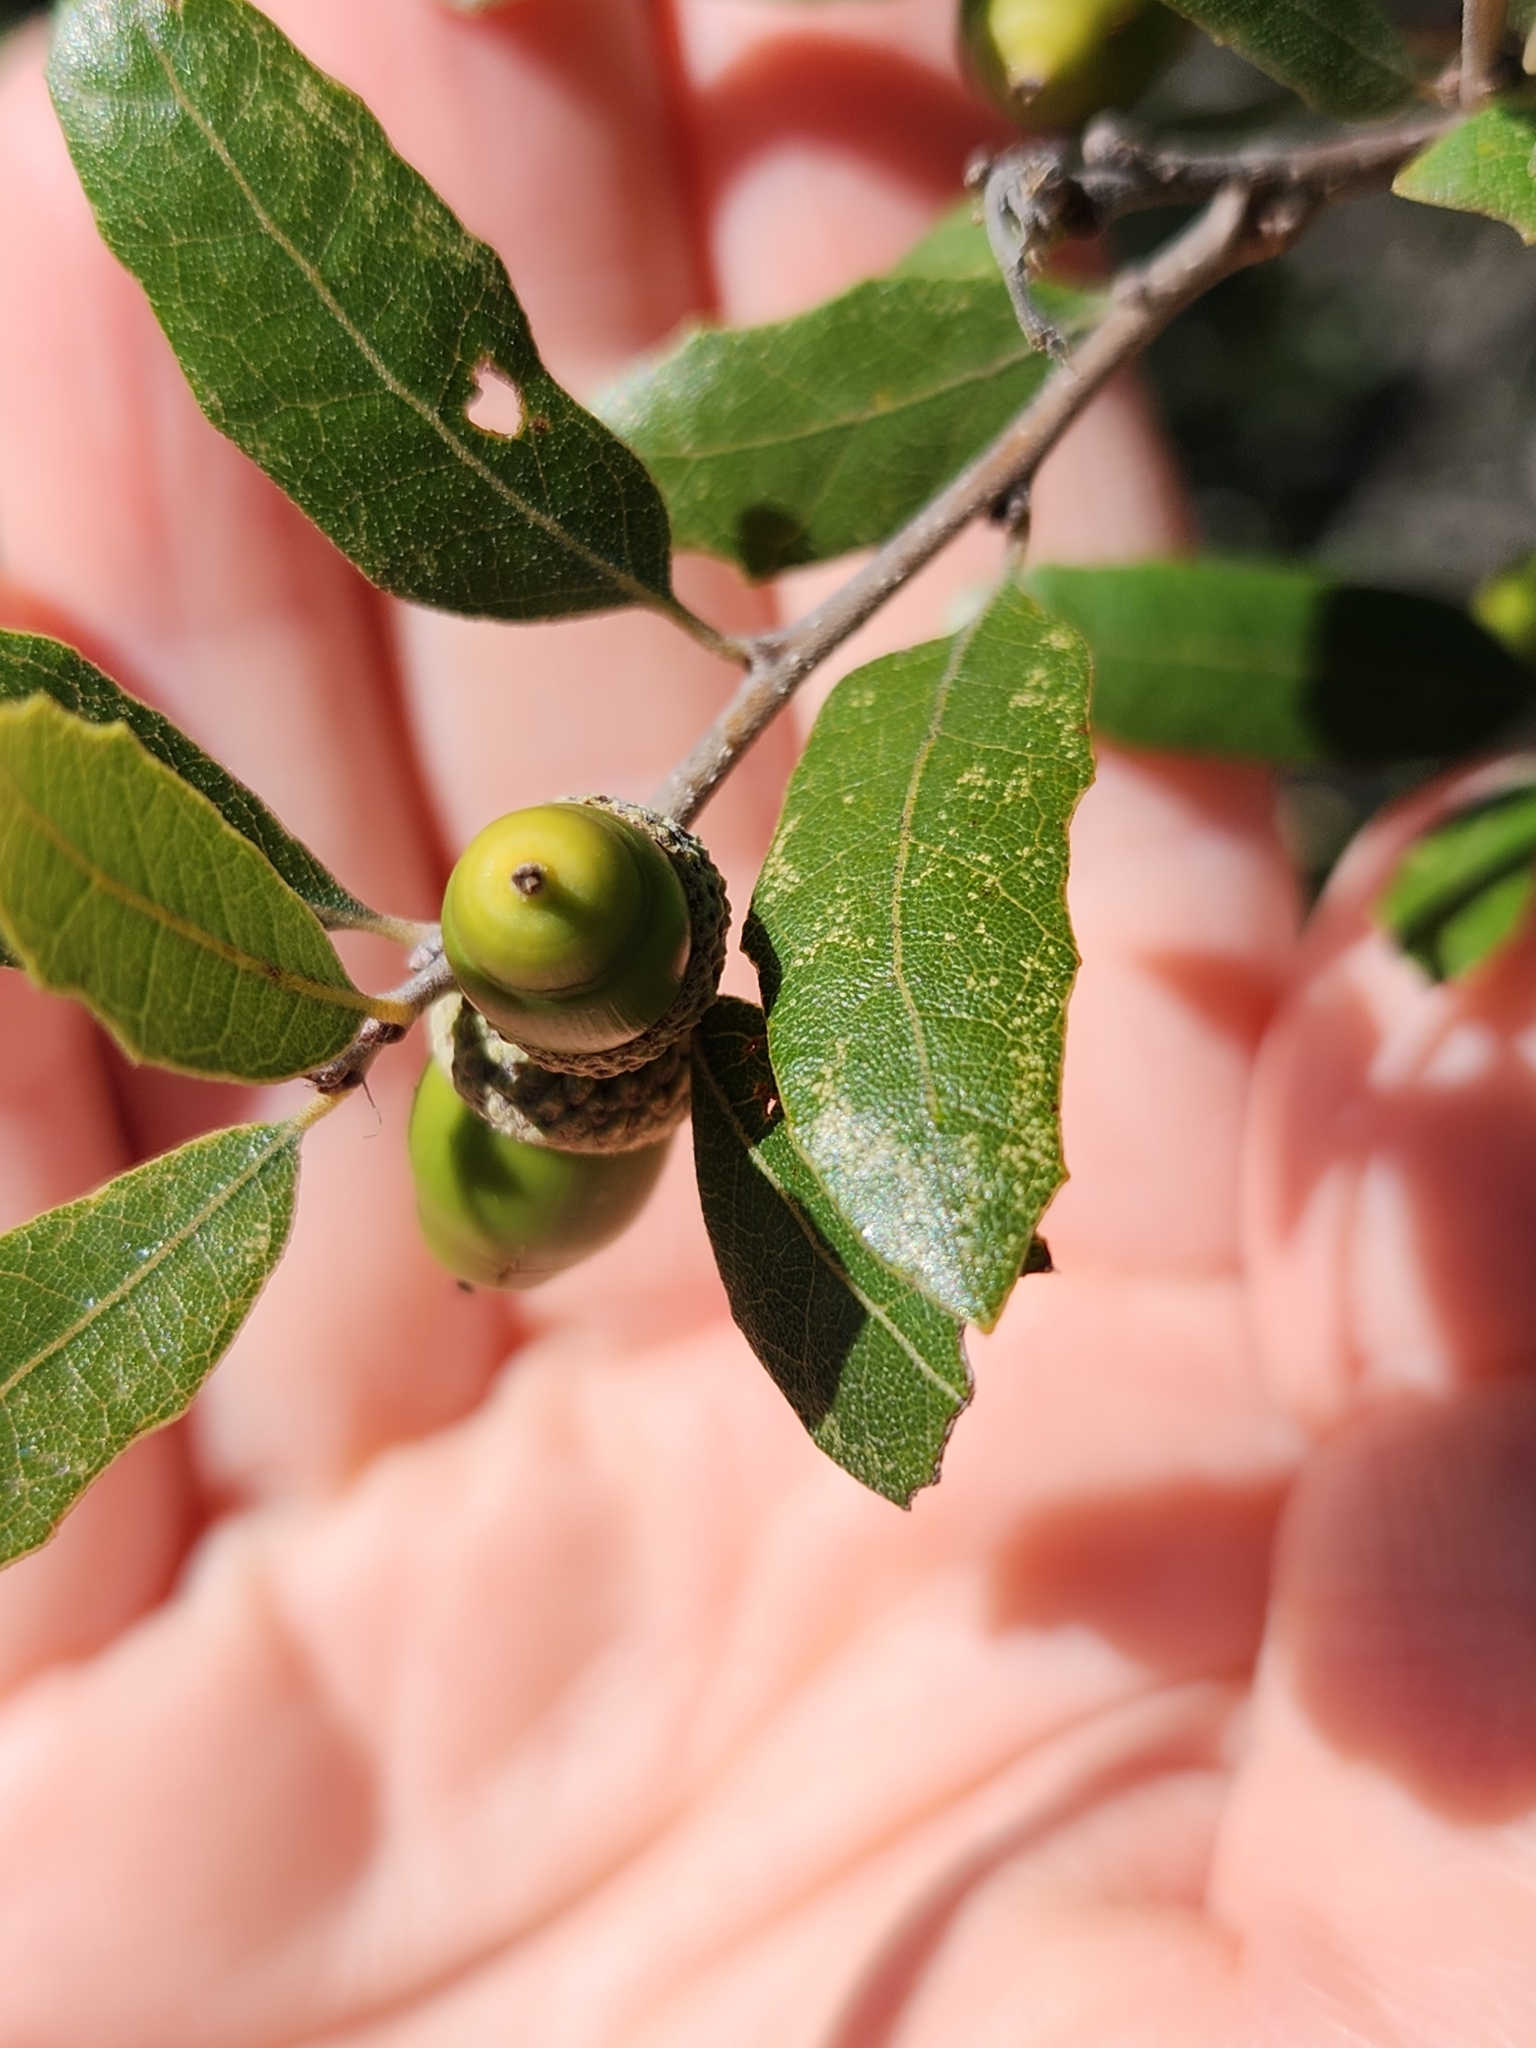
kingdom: Plantae
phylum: Tracheophyta
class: Magnoliopsida
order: Fagales
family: Fagaceae
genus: Quercus
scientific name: Quercus vaseyana
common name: Sandpaper oak
